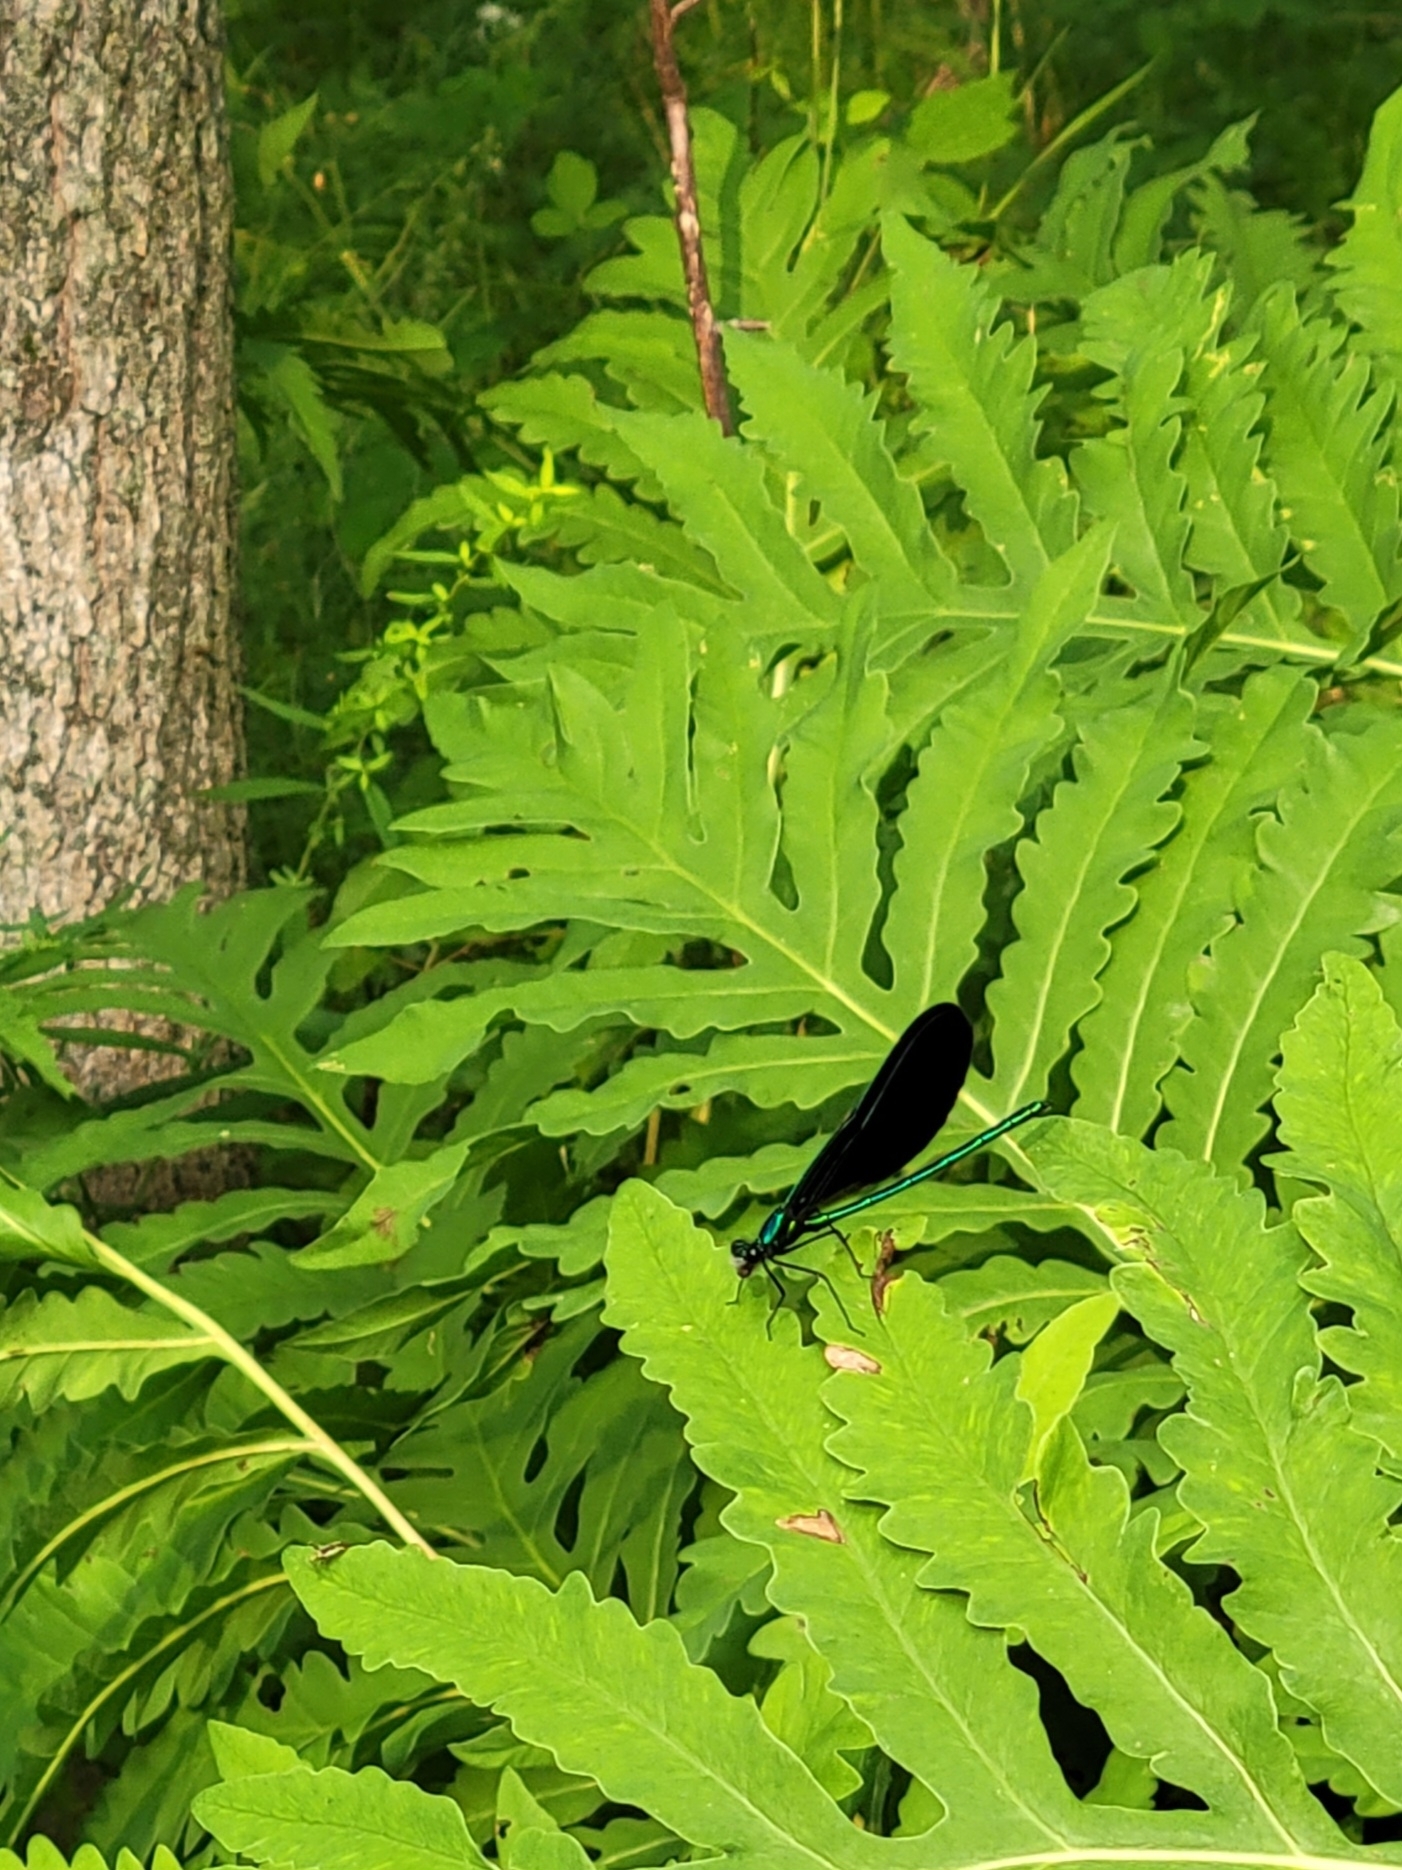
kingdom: Animalia
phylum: Arthropoda
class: Insecta
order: Odonata
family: Calopterygidae
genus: Calopteryx
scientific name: Calopteryx maculata
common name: Ebony jewelwing
